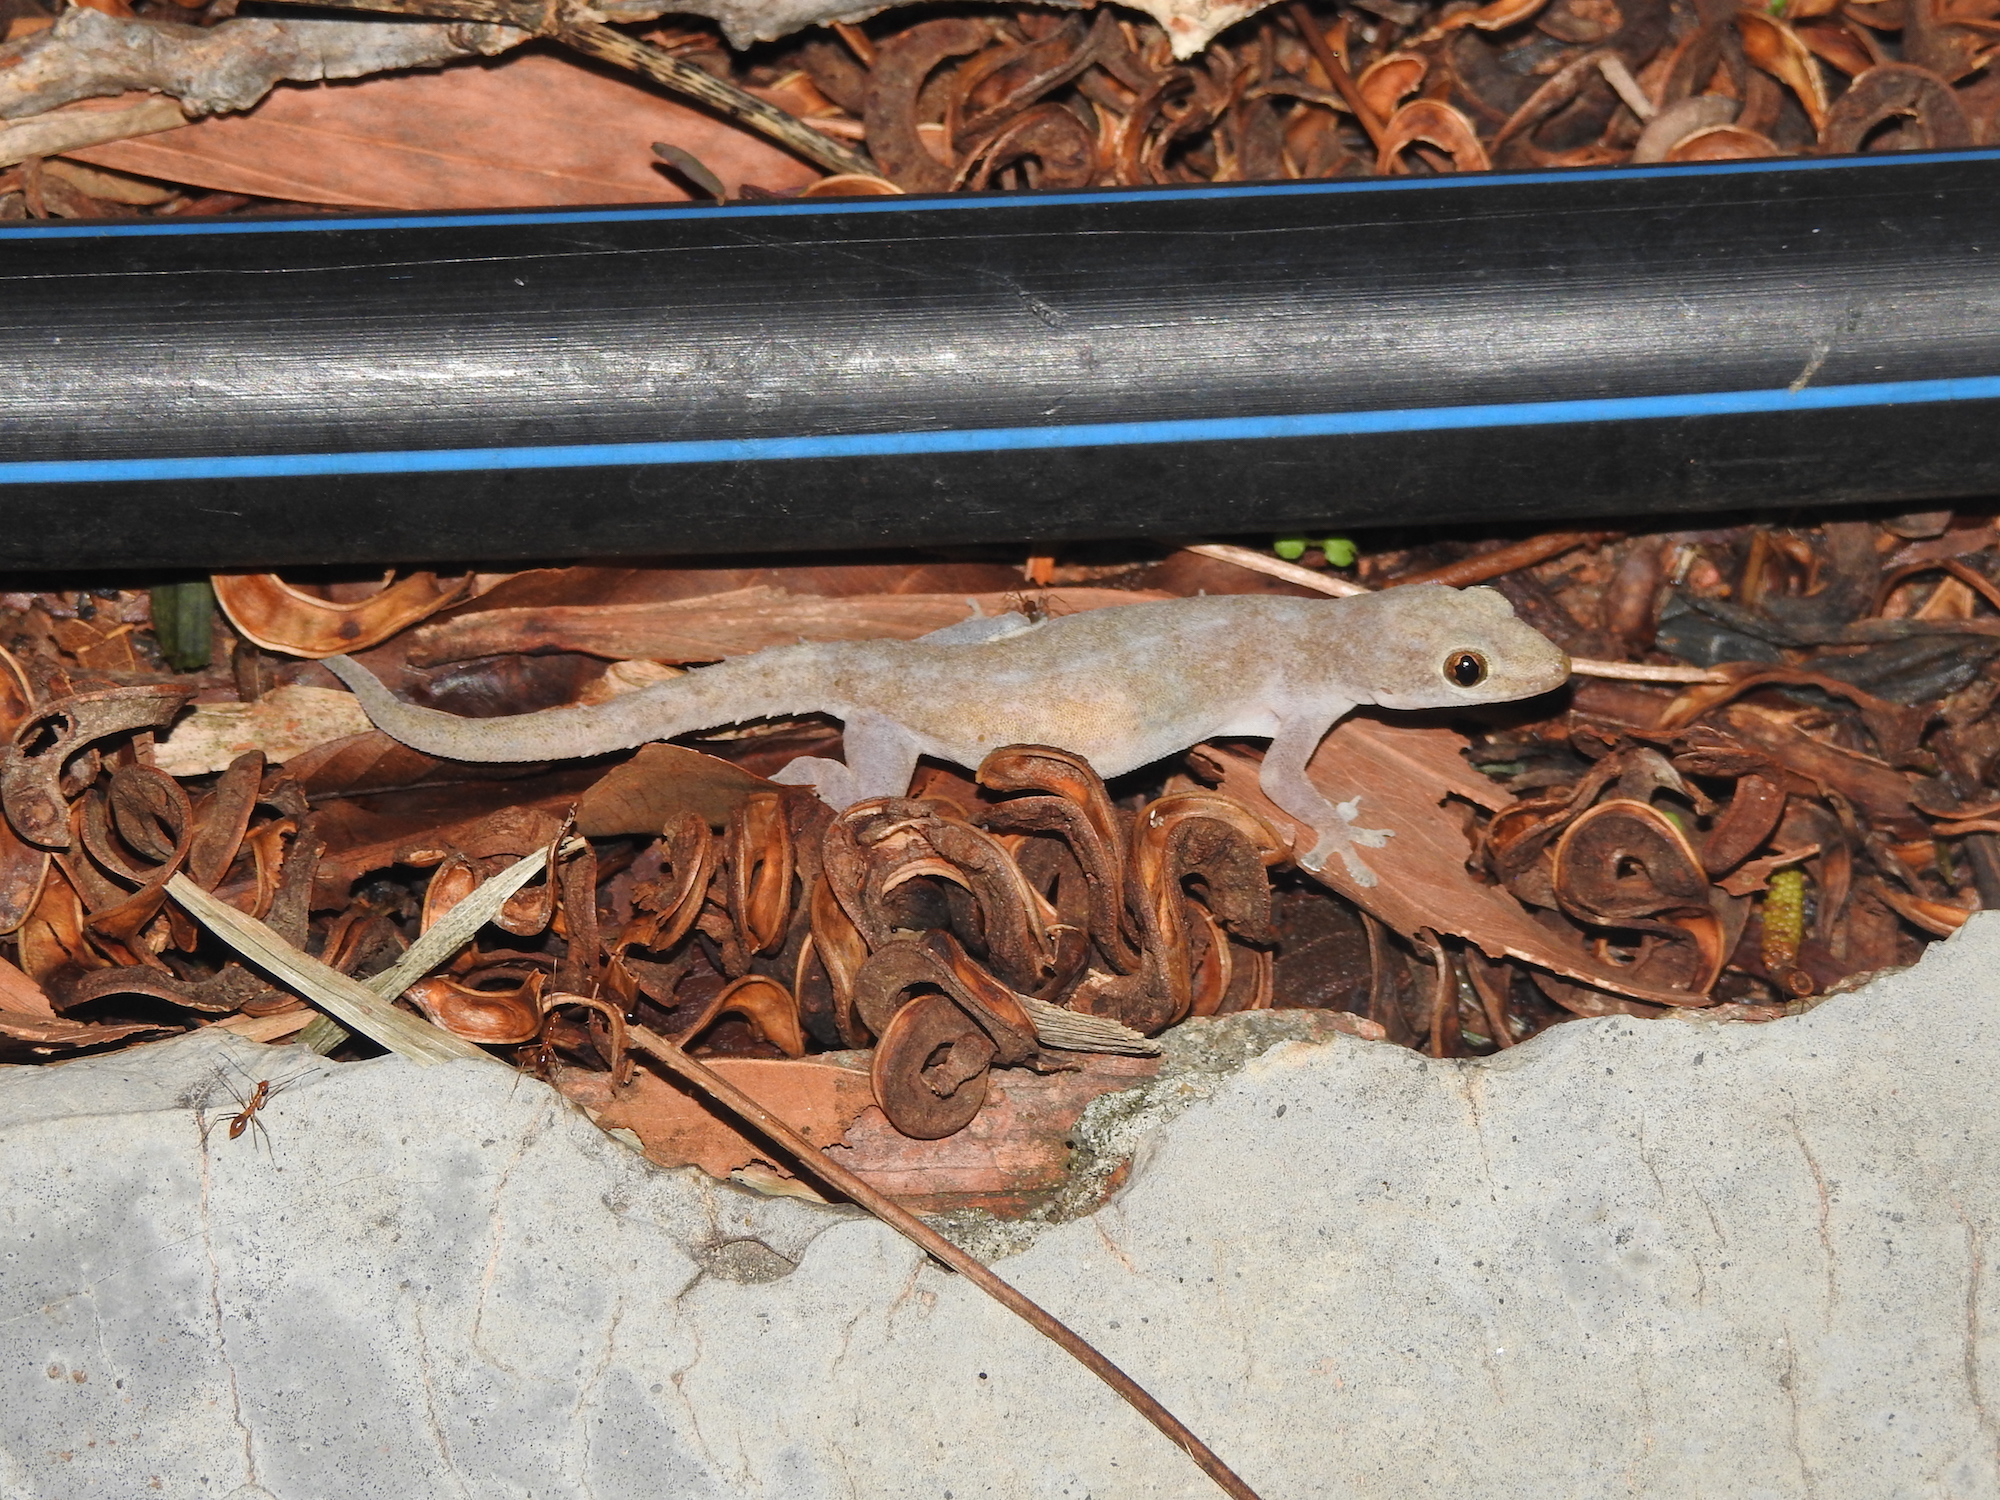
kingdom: Animalia
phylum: Chordata
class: Squamata
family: Gekkonidae
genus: Hemidactylus
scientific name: Hemidactylus frenatus
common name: Common house gecko
